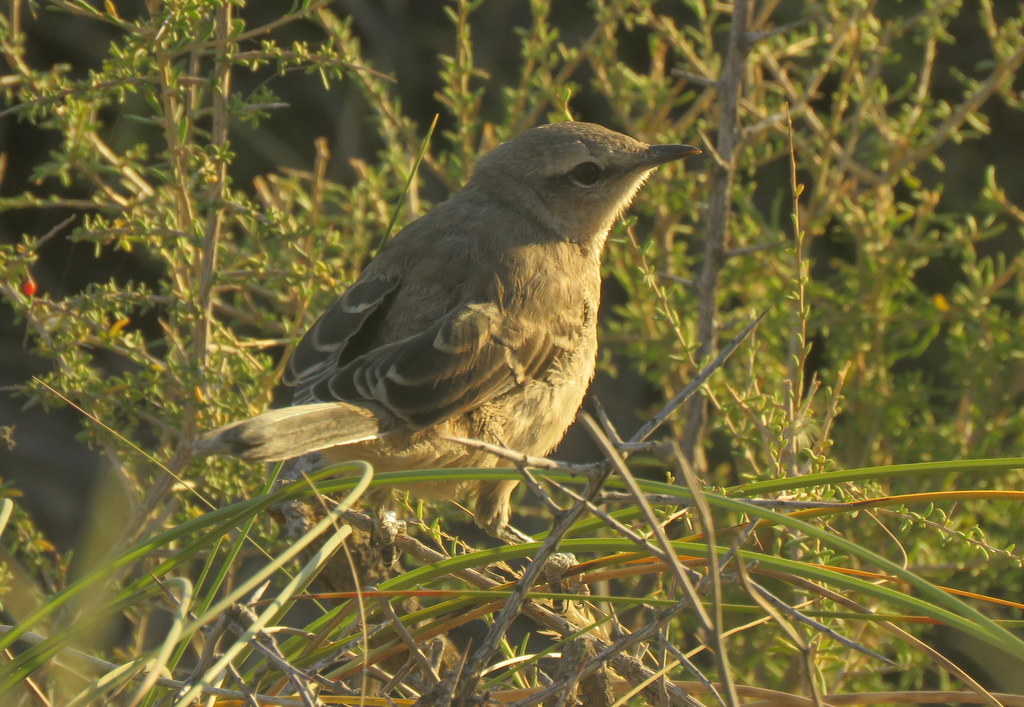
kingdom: Animalia
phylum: Chordata
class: Aves
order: Passeriformes
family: Mimidae
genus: Mimus
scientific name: Mimus patagonicus
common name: Patagonian mockingbird
